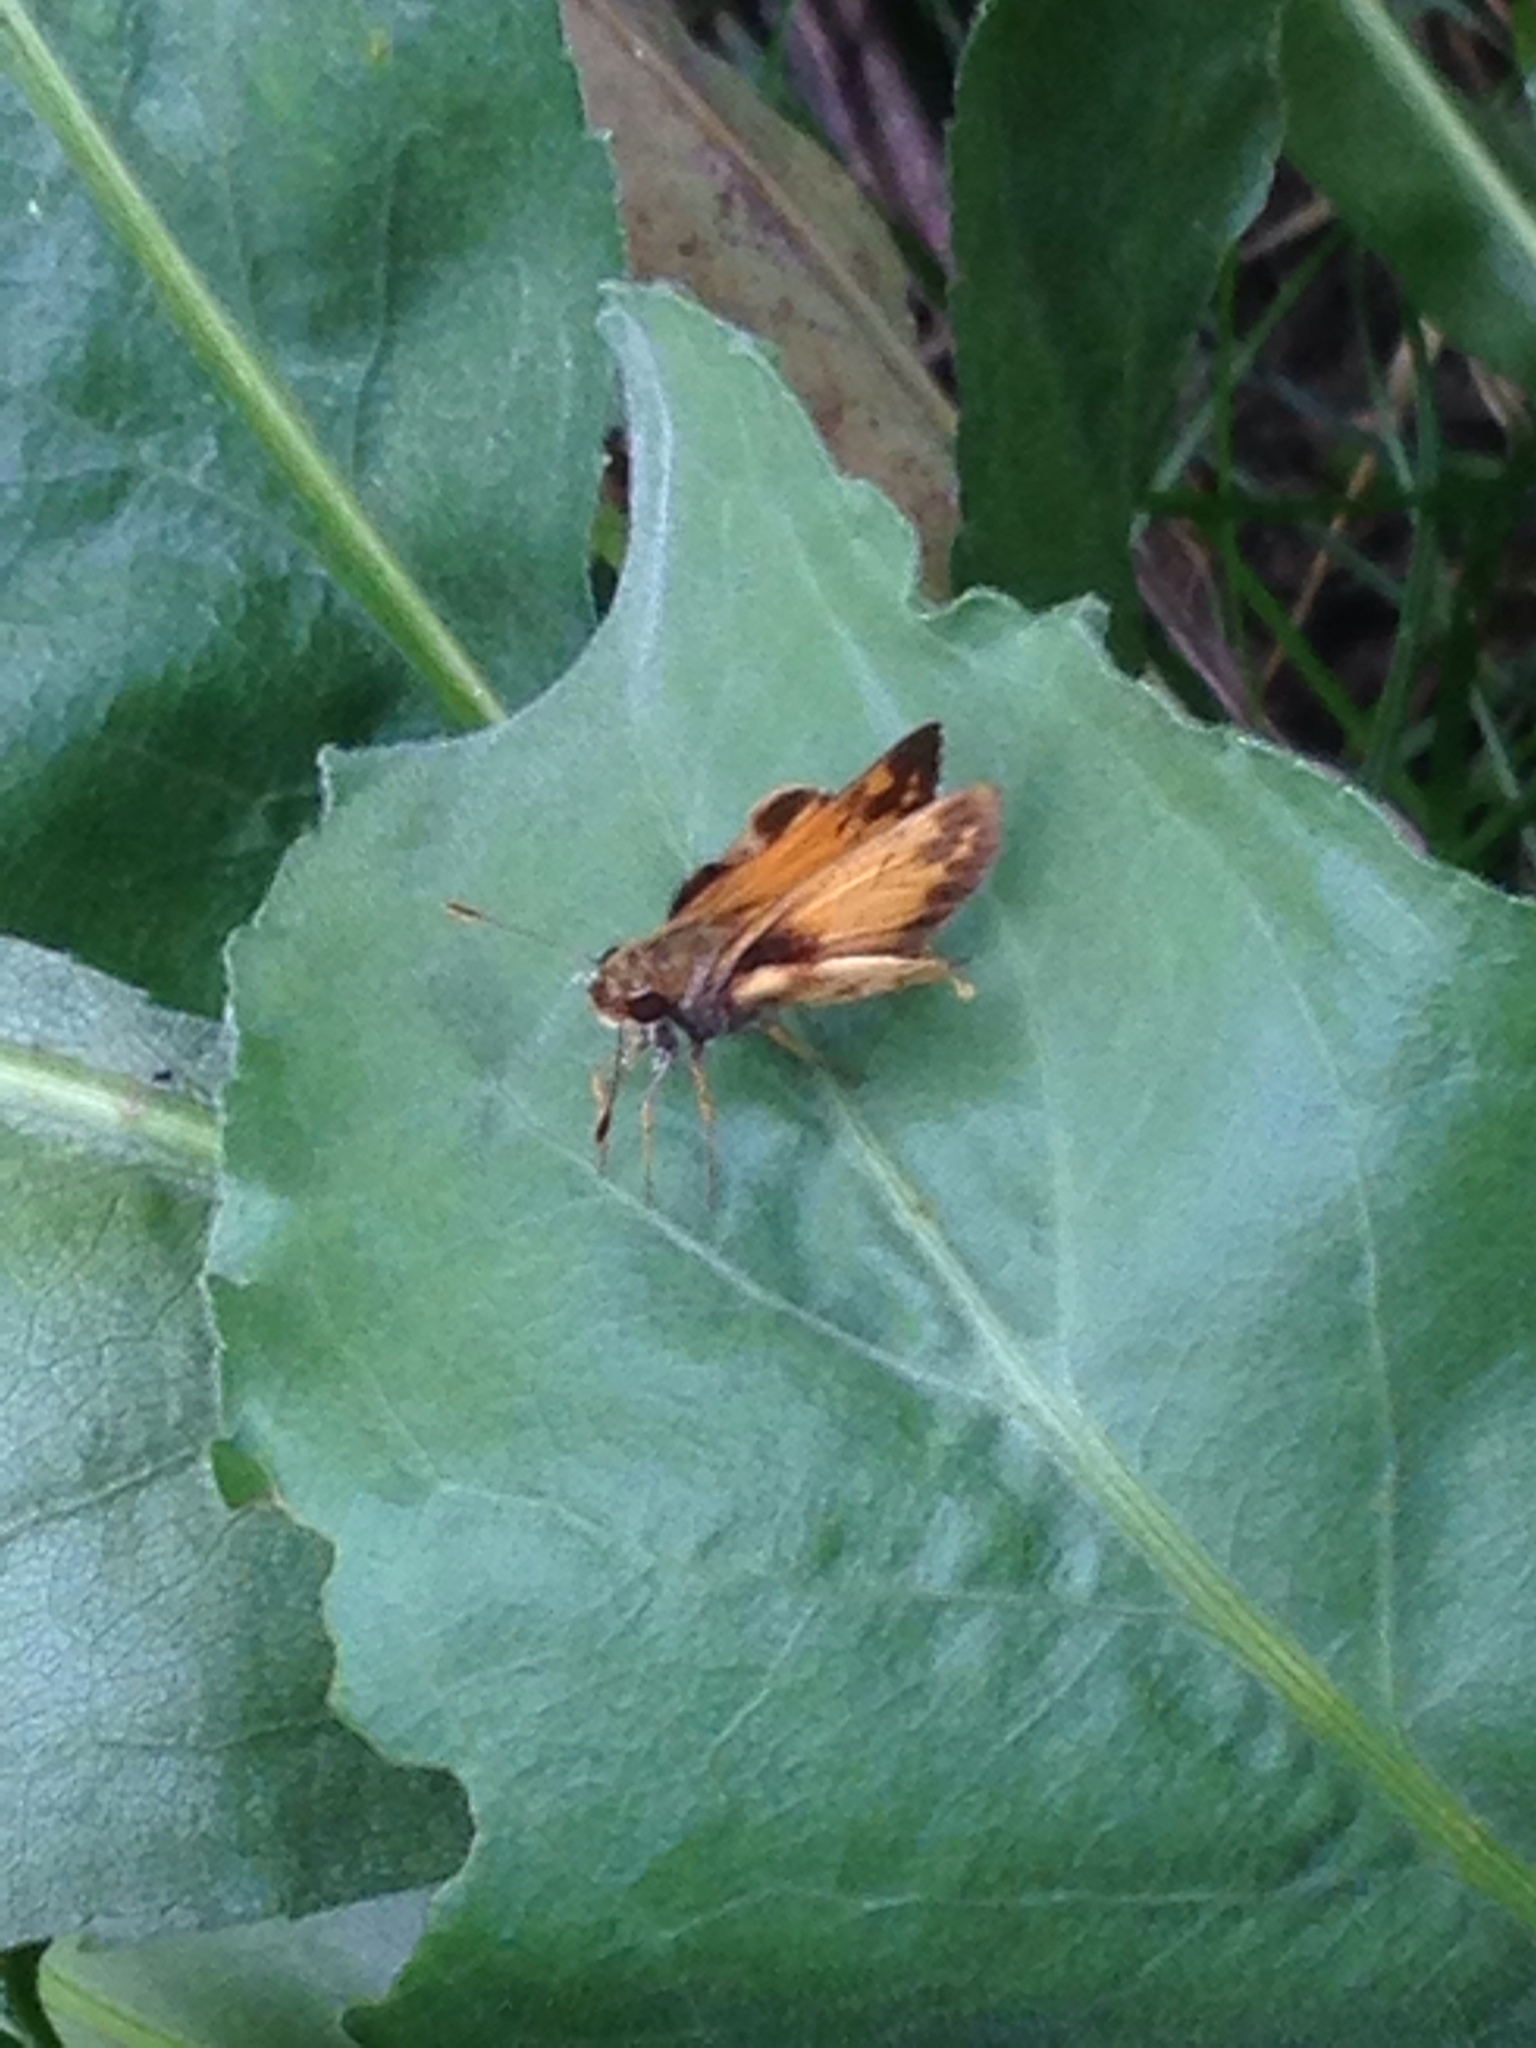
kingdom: Animalia
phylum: Arthropoda
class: Insecta
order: Lepidoptera
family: Hesperiidae
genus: Lon
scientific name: Lon zabulon
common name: Zabulon skipper
